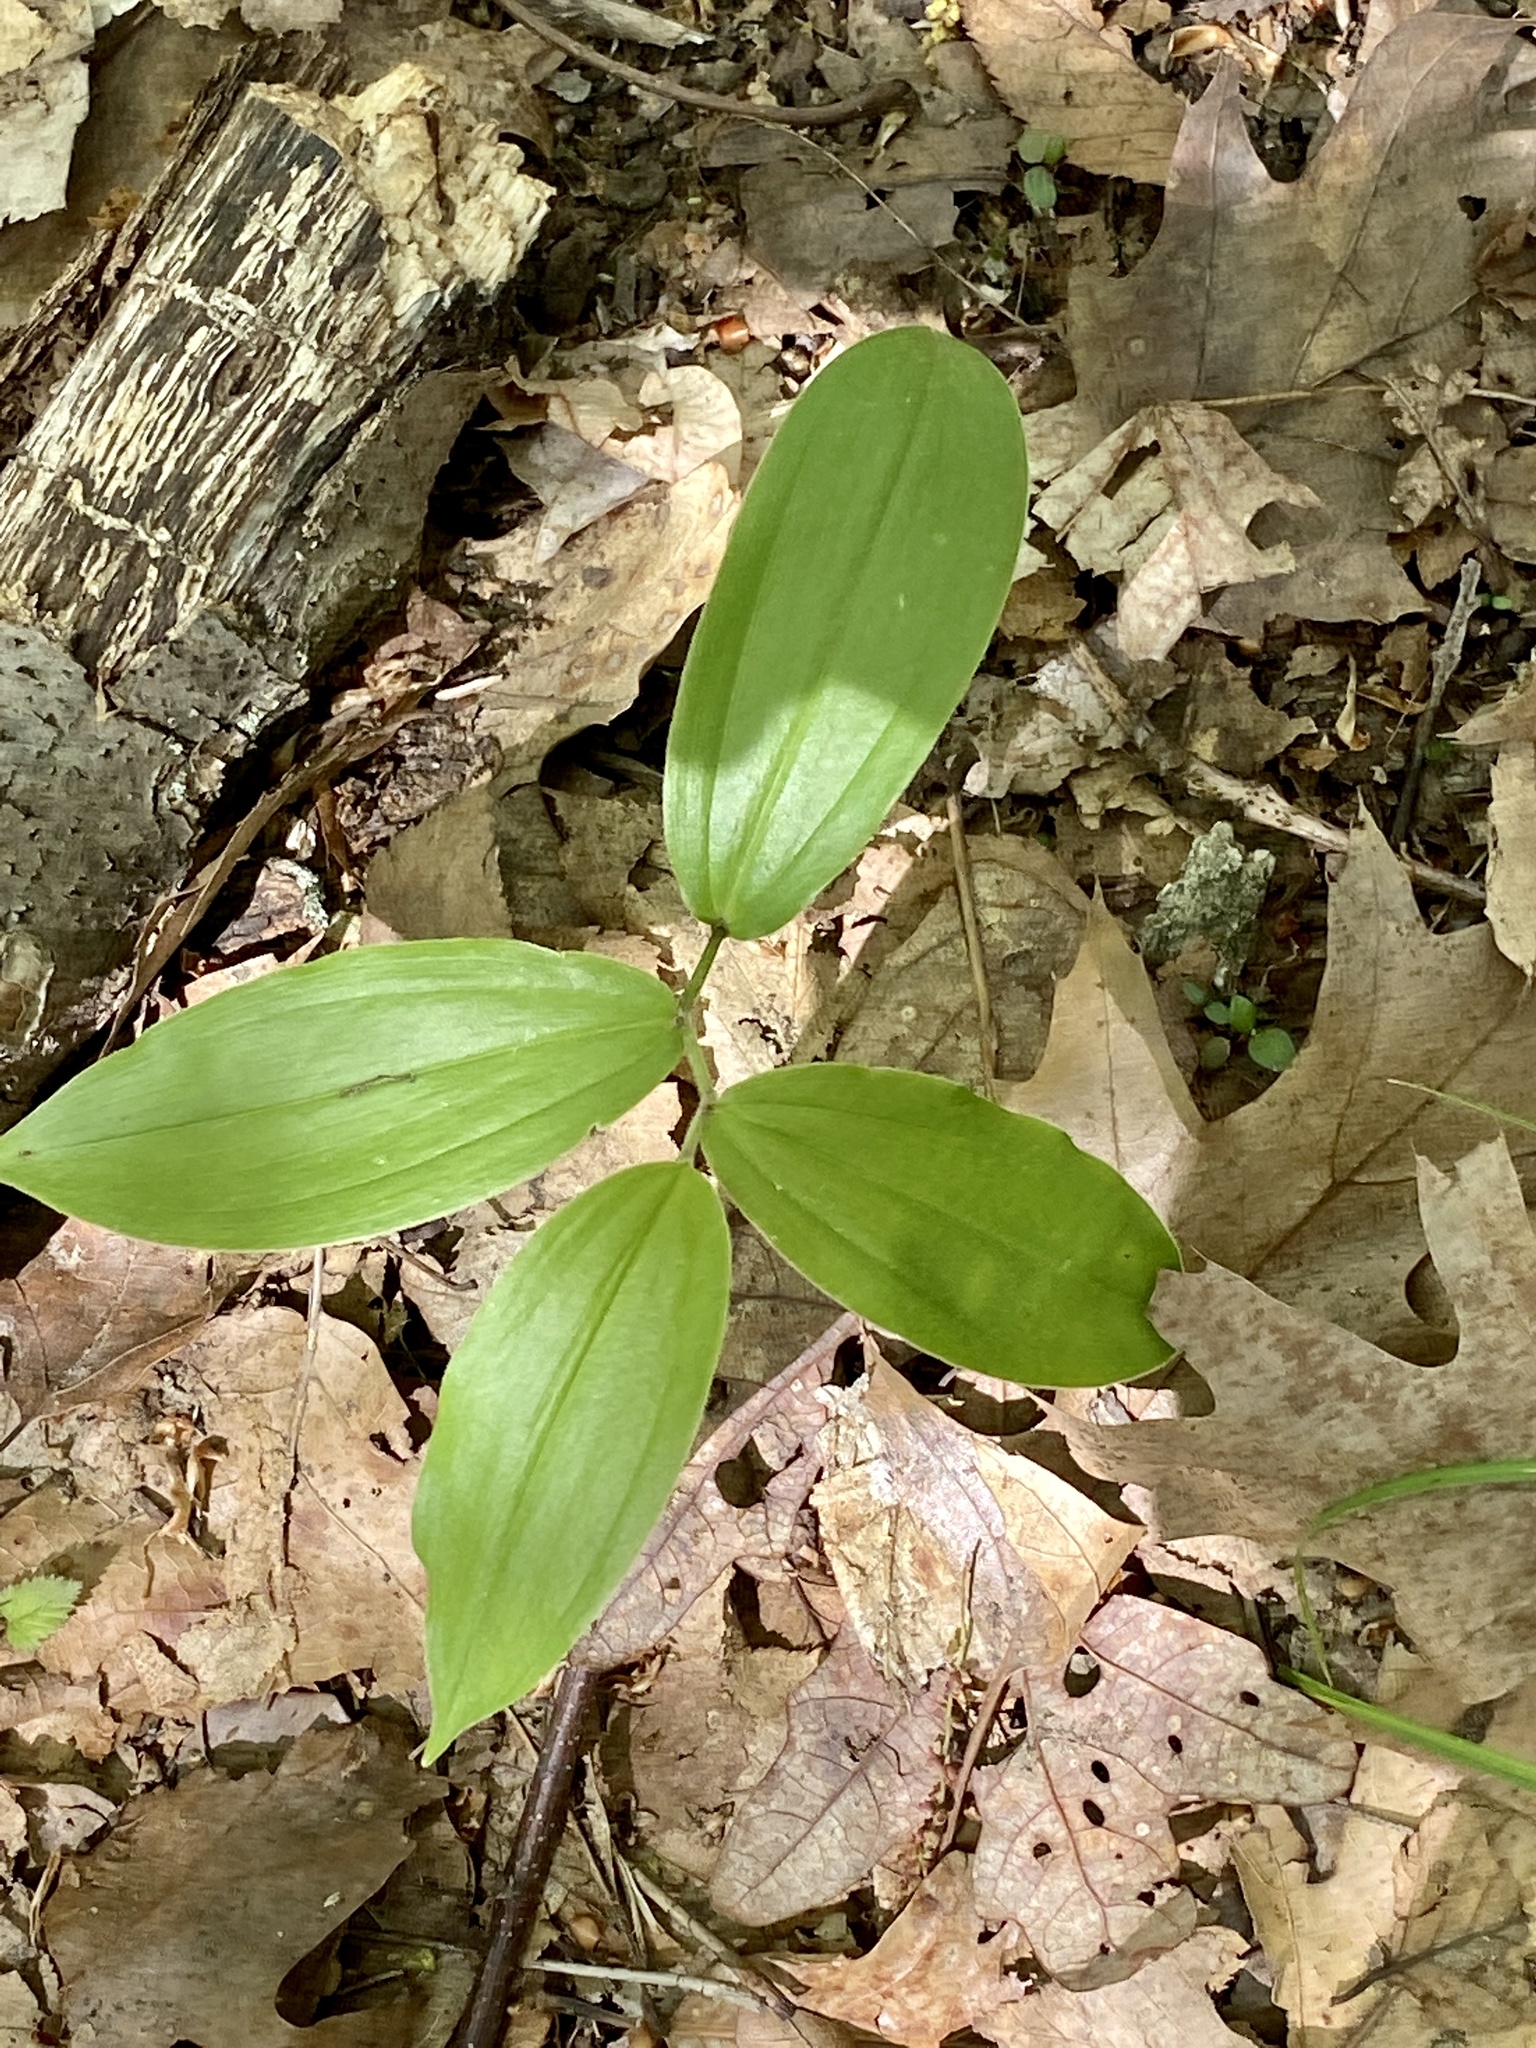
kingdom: Plantae
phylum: Tracheophyta
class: Liliopsida
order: Asparagales
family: Asparagaceae
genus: Maianthemum
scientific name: Maianthemum racemosum
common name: False spikenard
